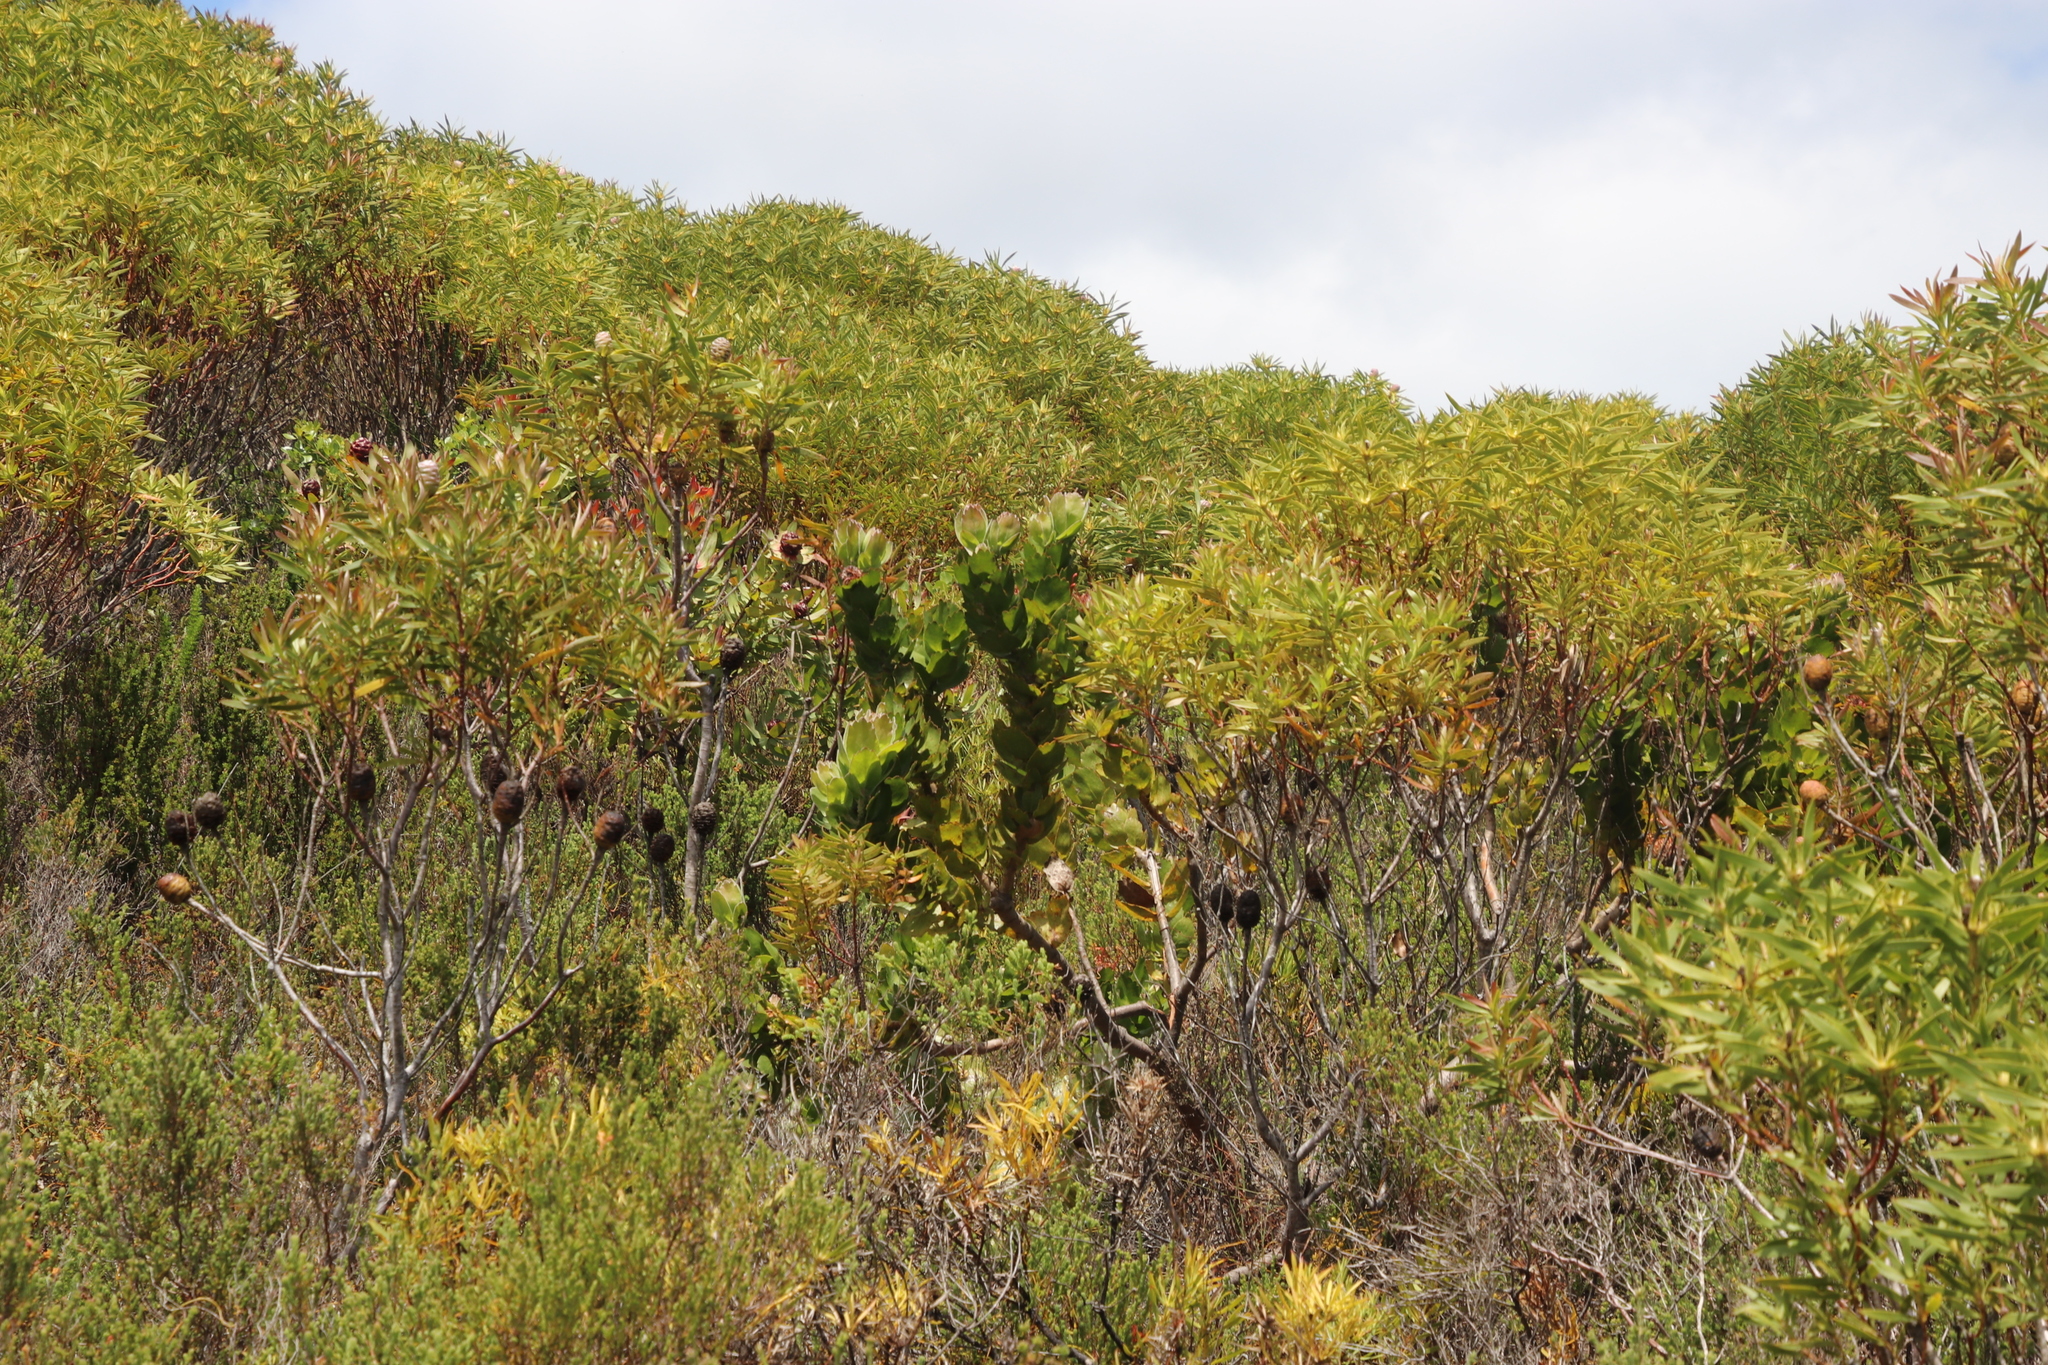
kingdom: Plantae
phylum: Tracheophyta
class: Magnoliopsida
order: Proteales
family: Proteaceae
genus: Leucospermum
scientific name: Leucospermum patersonii
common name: False tree pincushion
